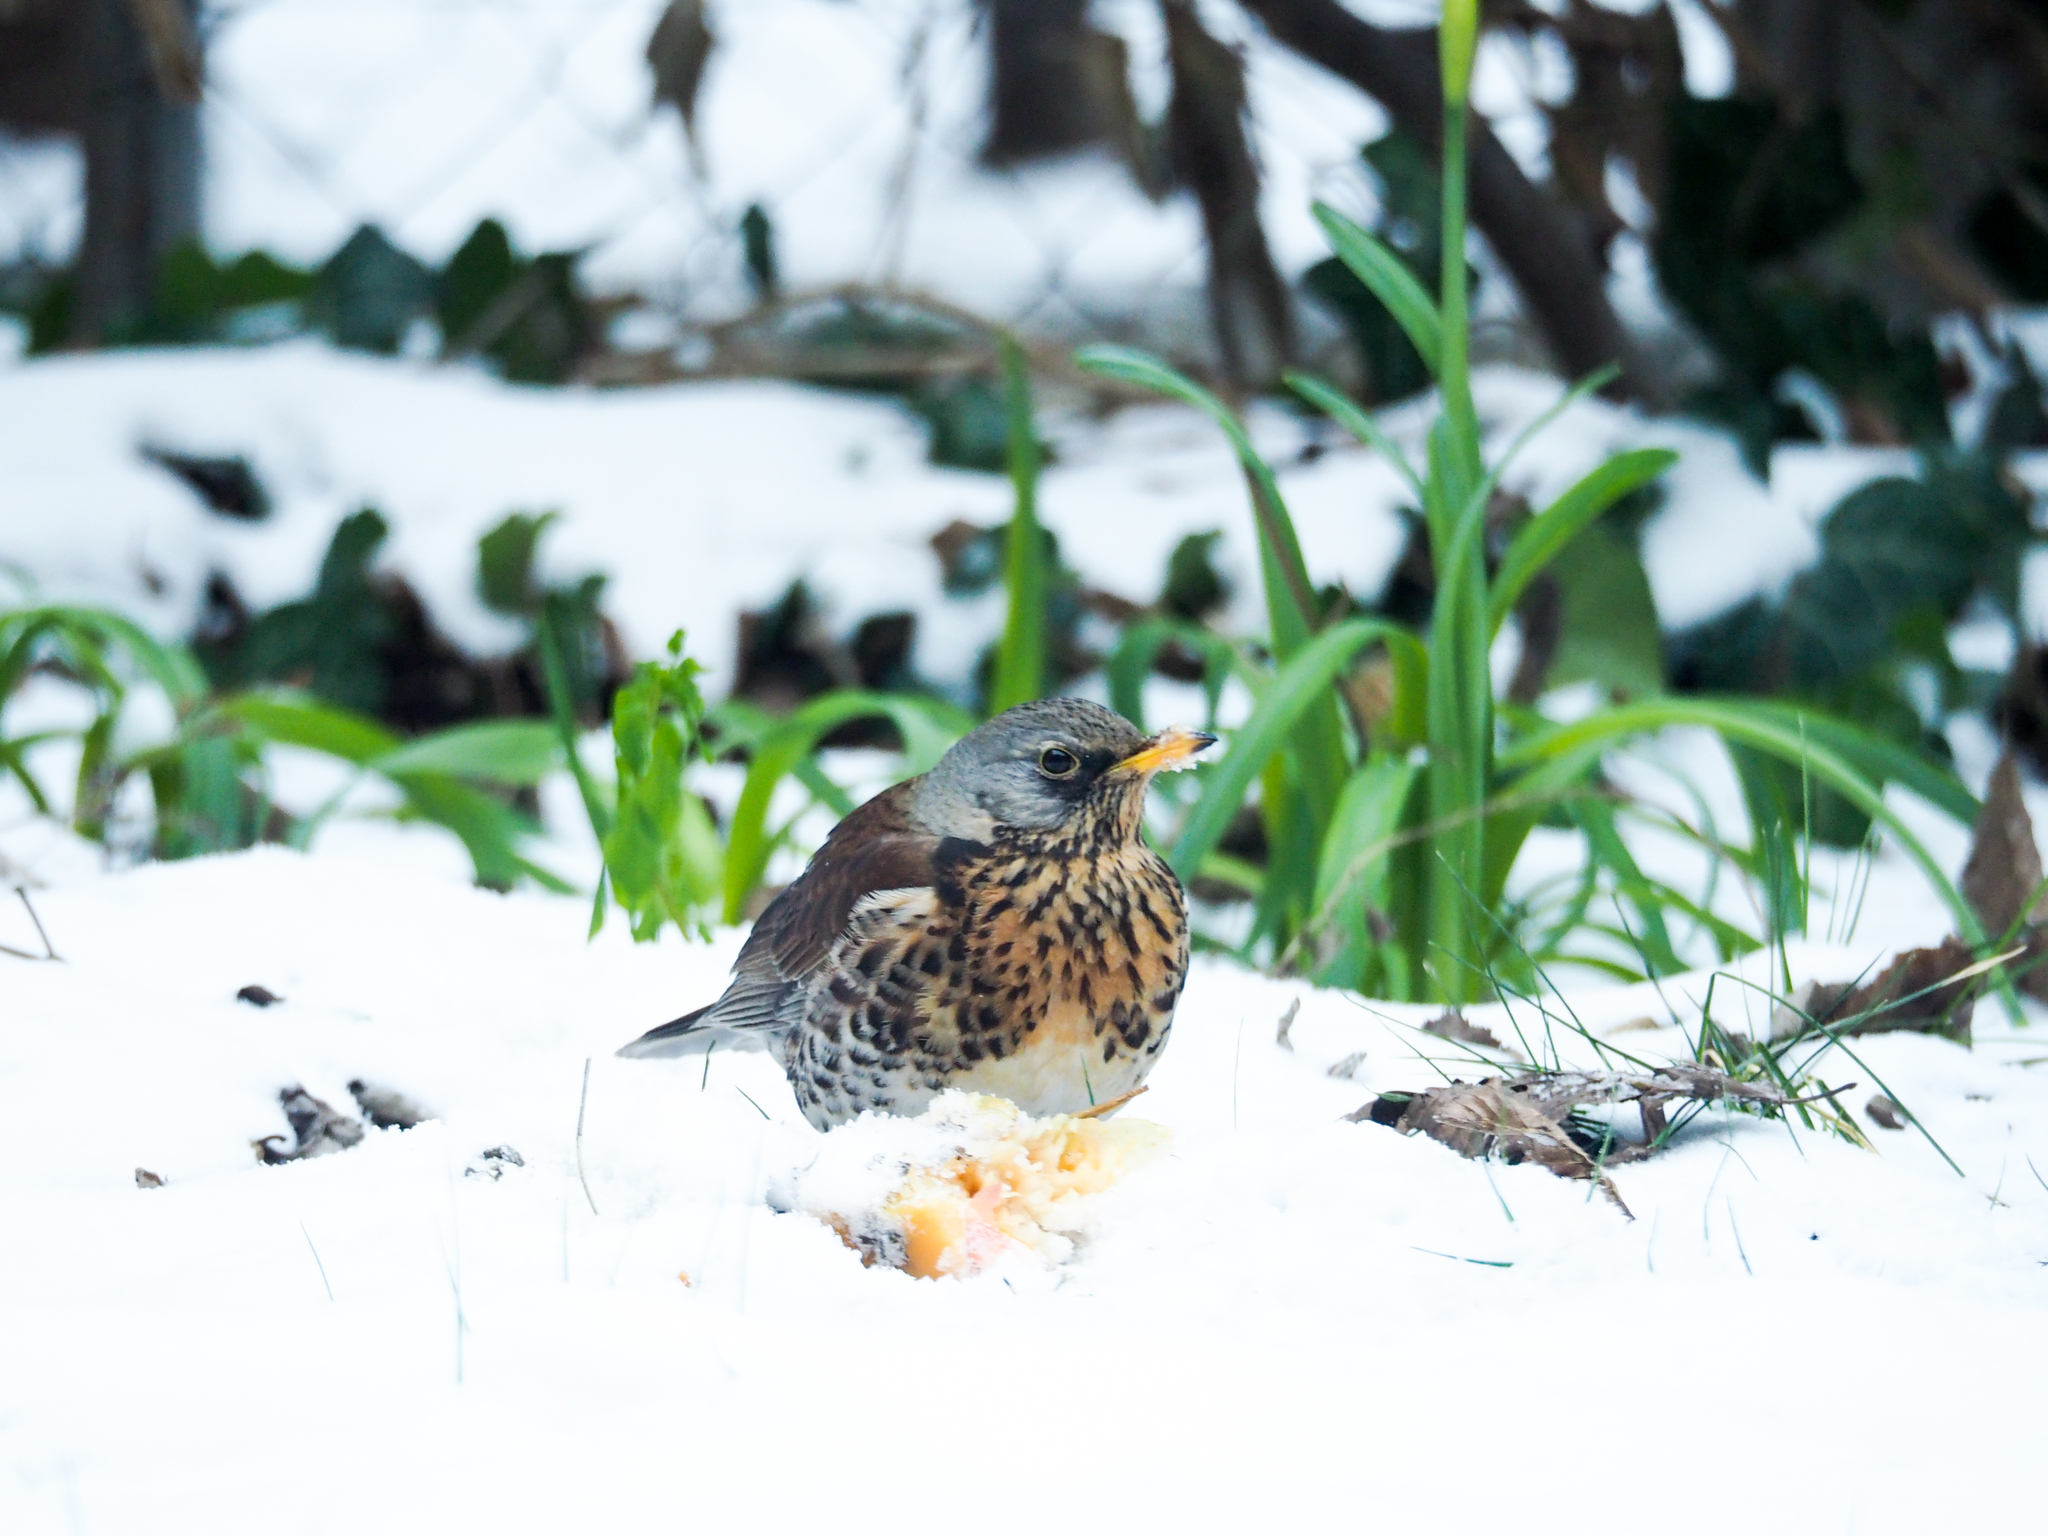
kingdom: Animalia
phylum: Chordata
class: Aves
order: Passeriformes
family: Turdidae
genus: Turdus
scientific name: Turdus pilaris
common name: Fieldfare
